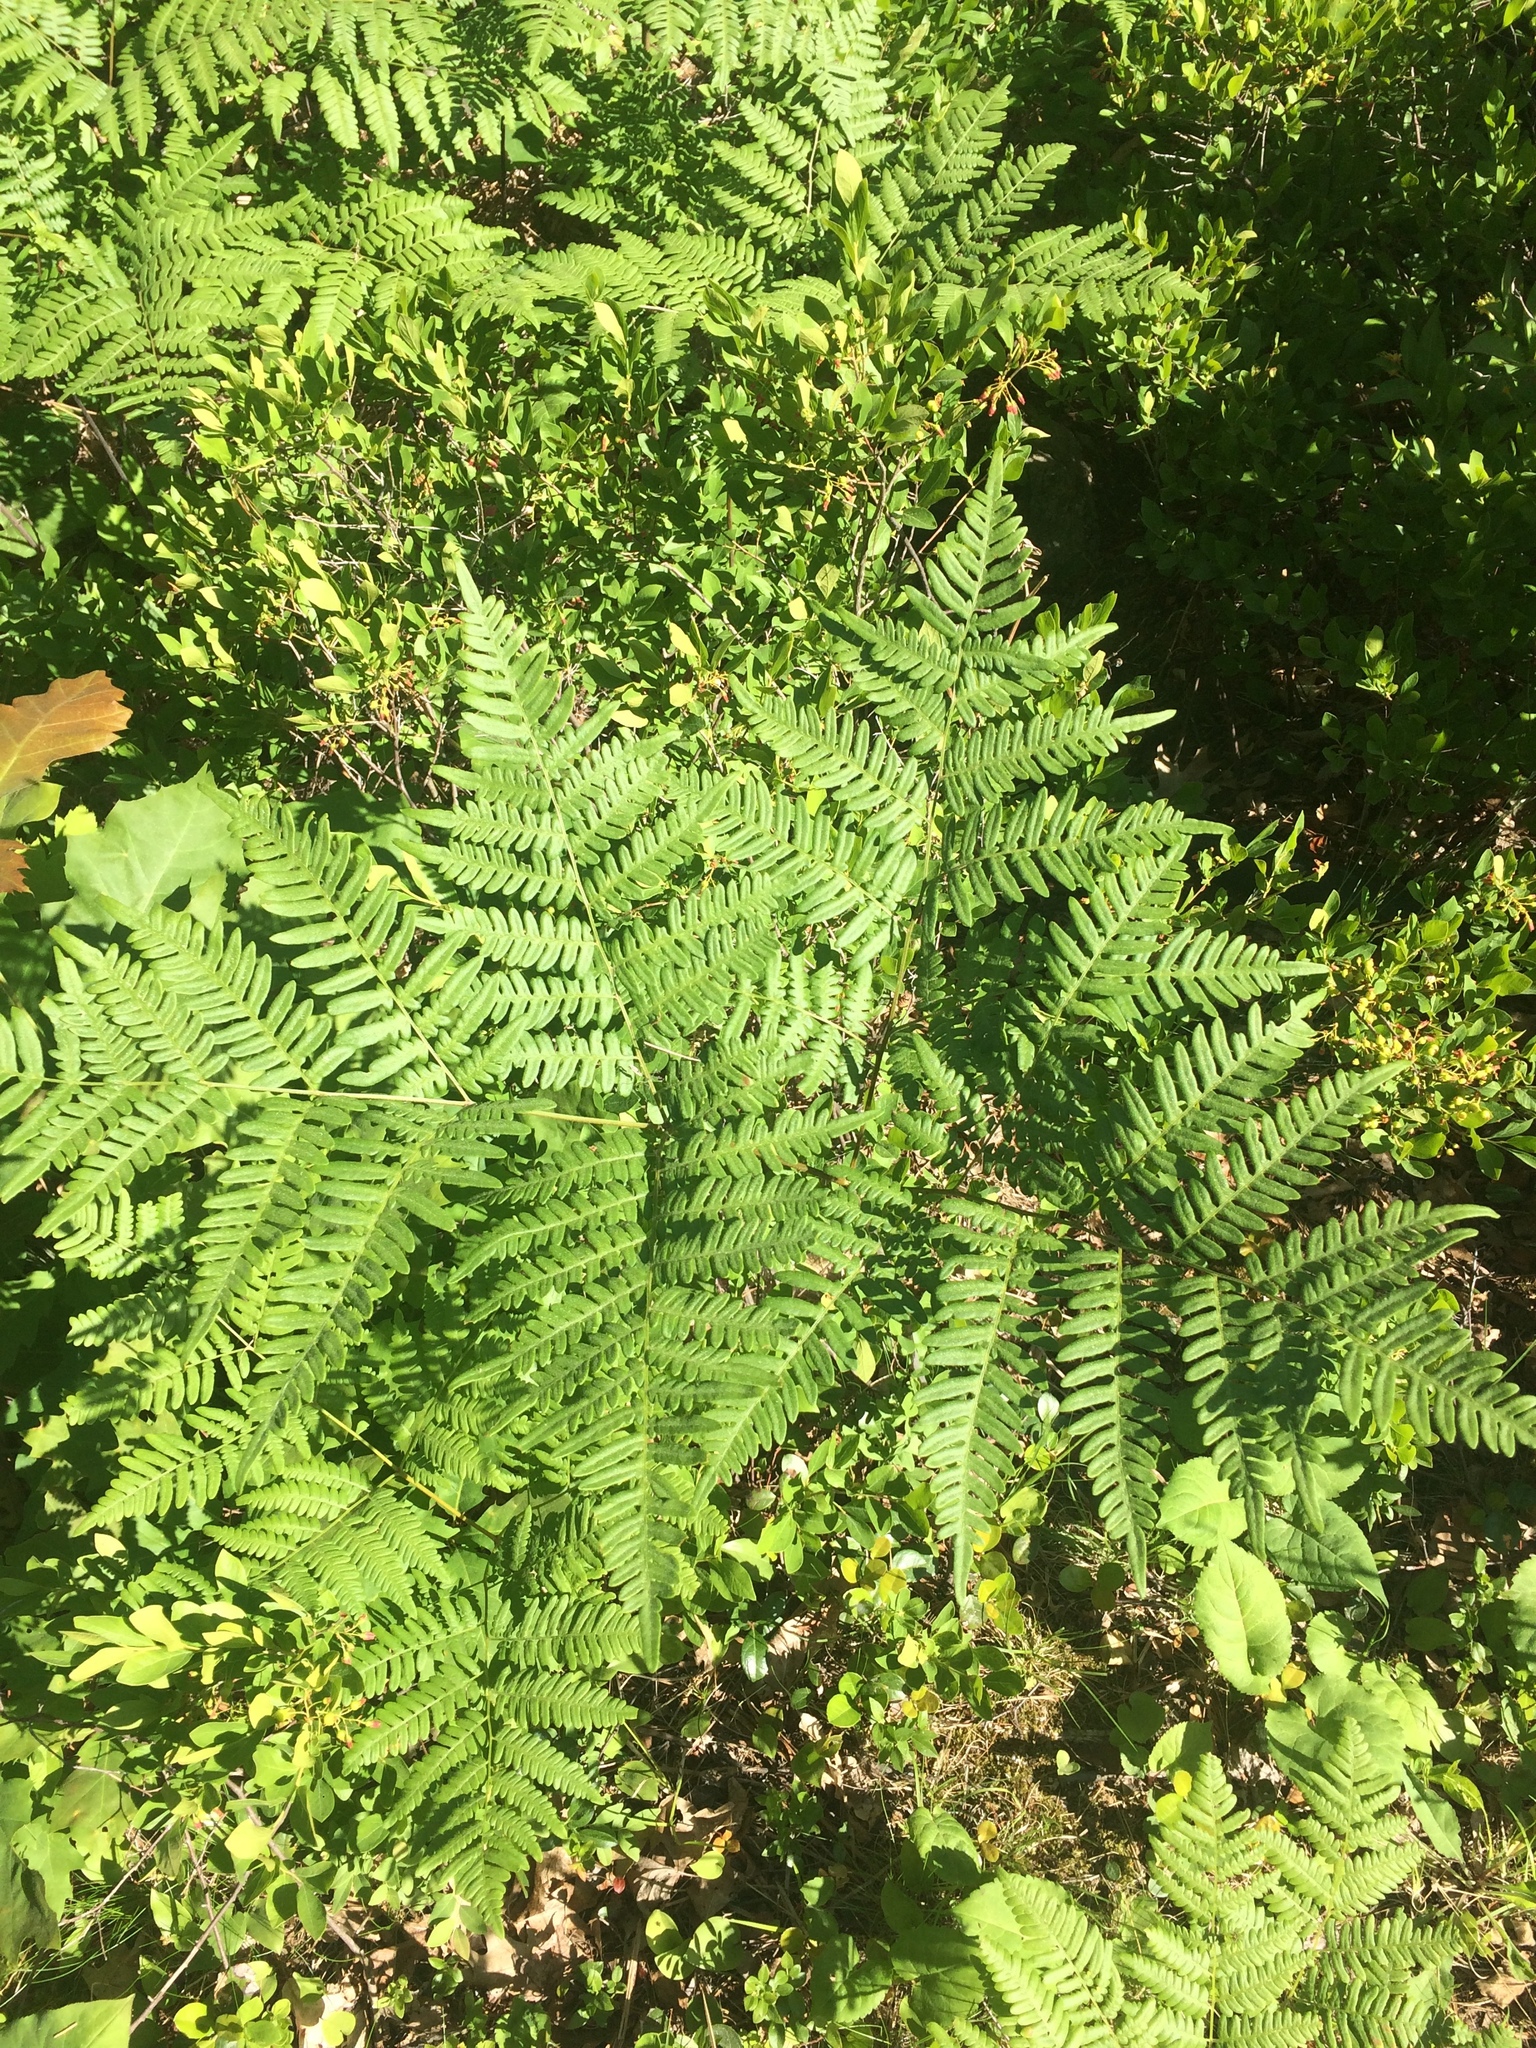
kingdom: Plantae
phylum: Tracheophyta
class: Polypodiopsida
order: Polypodiales
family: Dennstaedtiaceae
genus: Pteridium
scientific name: Pteridium aquilinum
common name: Bracken
